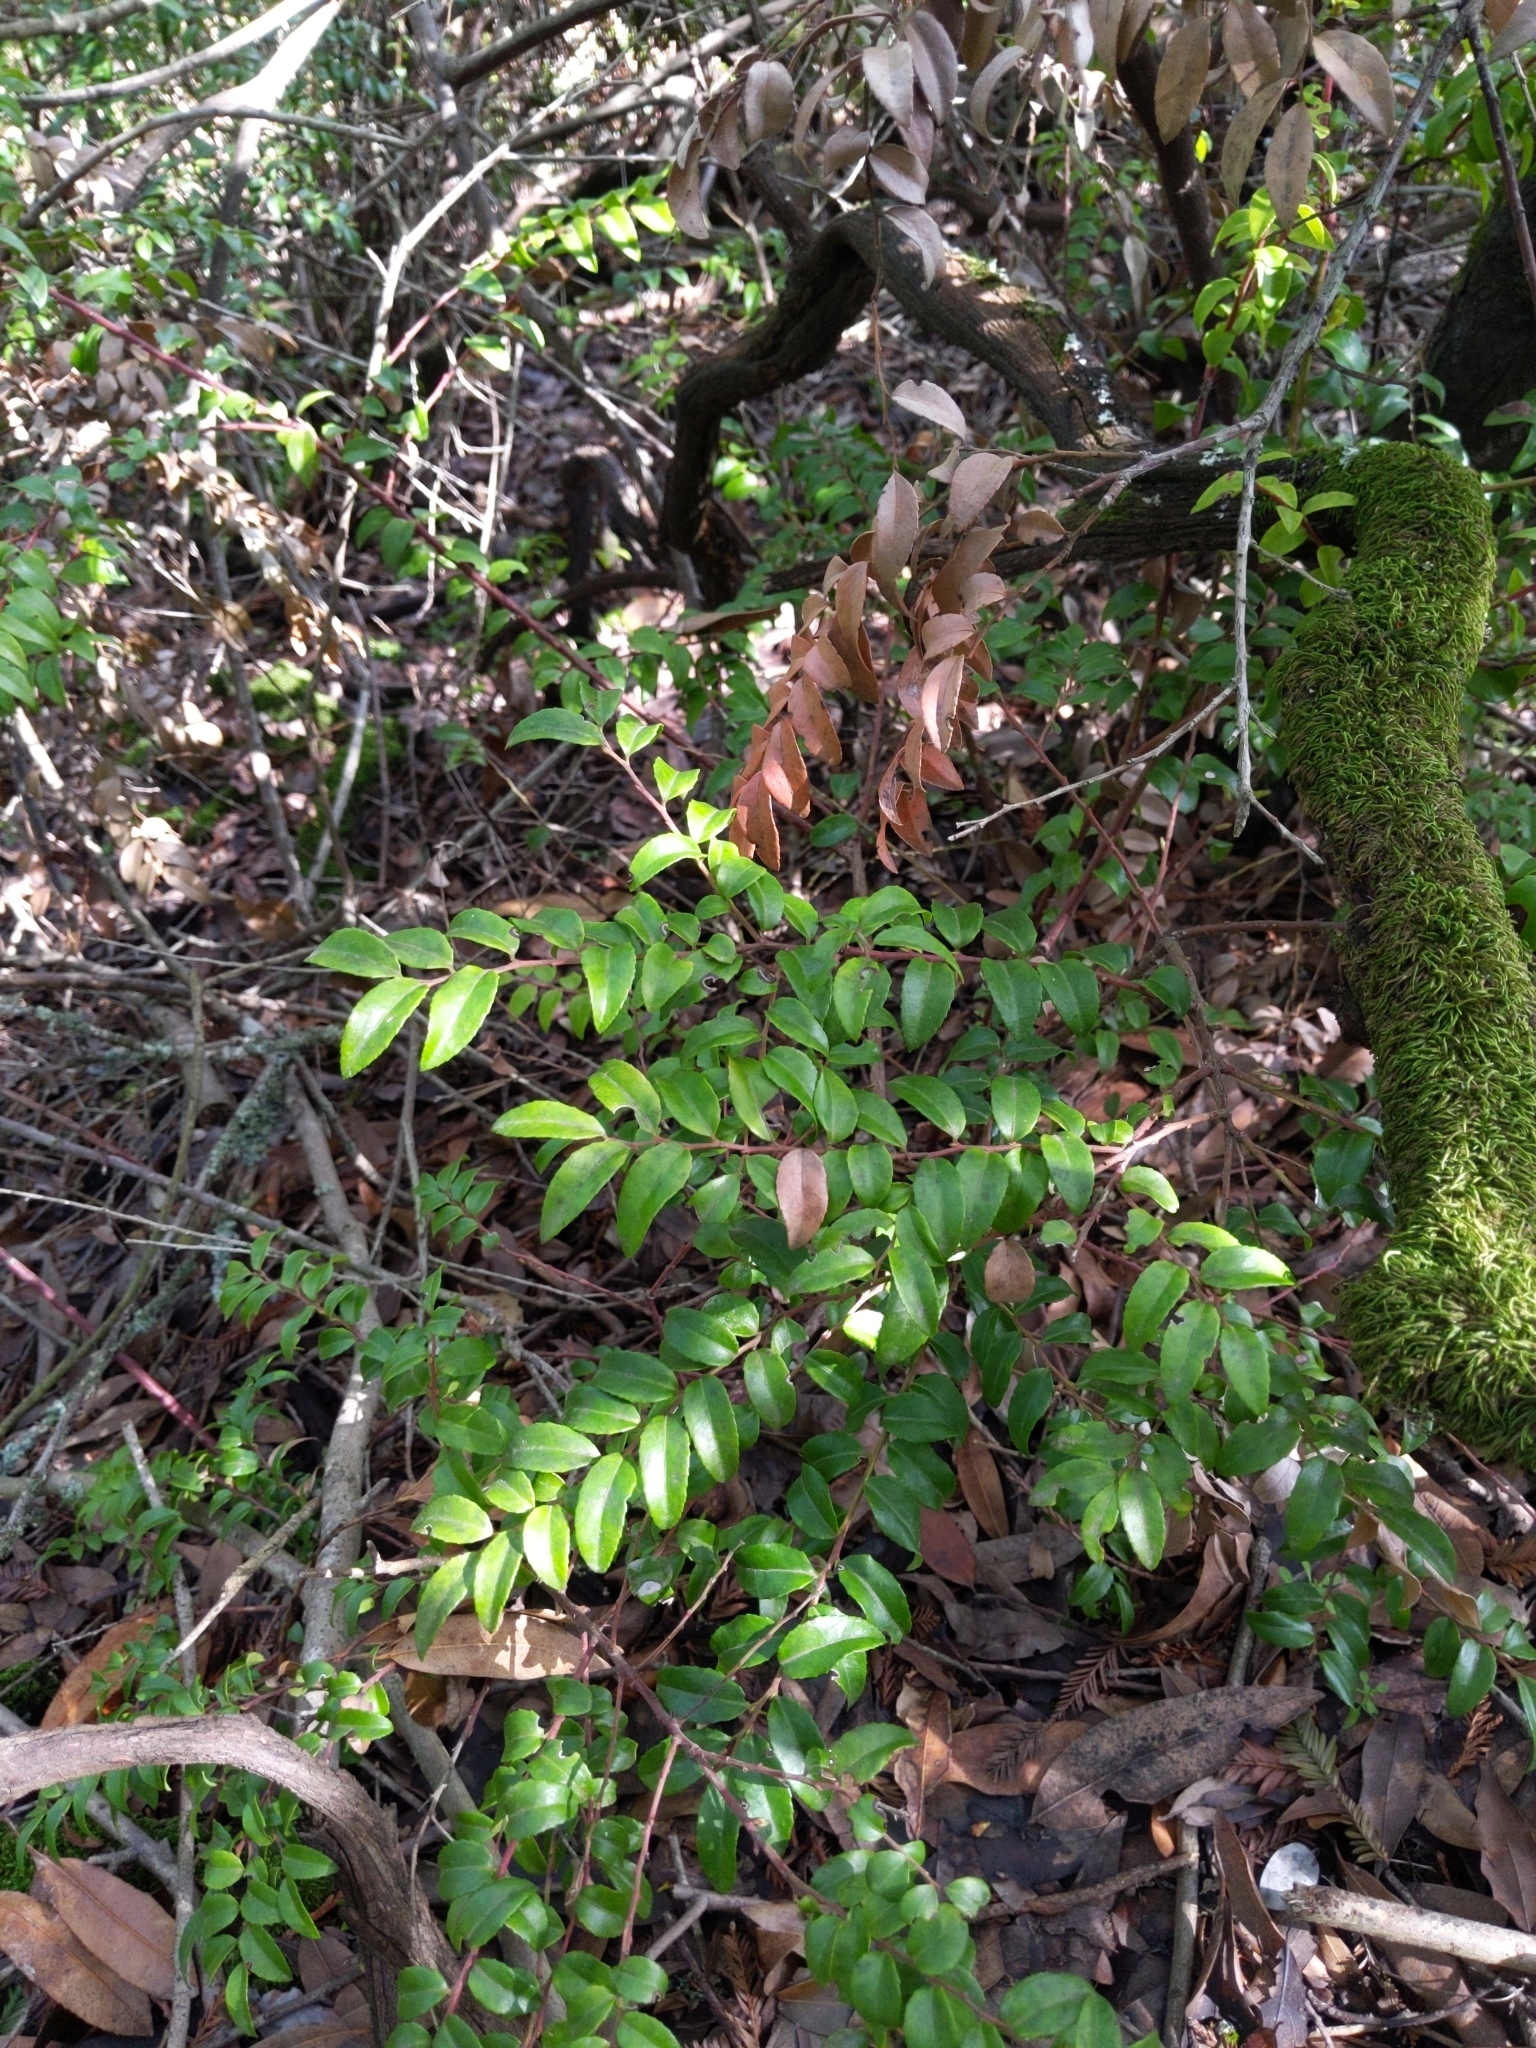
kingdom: Plantae
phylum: Tracheophyta
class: Magnoliopsida
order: Ericales
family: Ericaceae
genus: Vaccinium
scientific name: Vaccinium ovatum
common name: California-huckleberry
